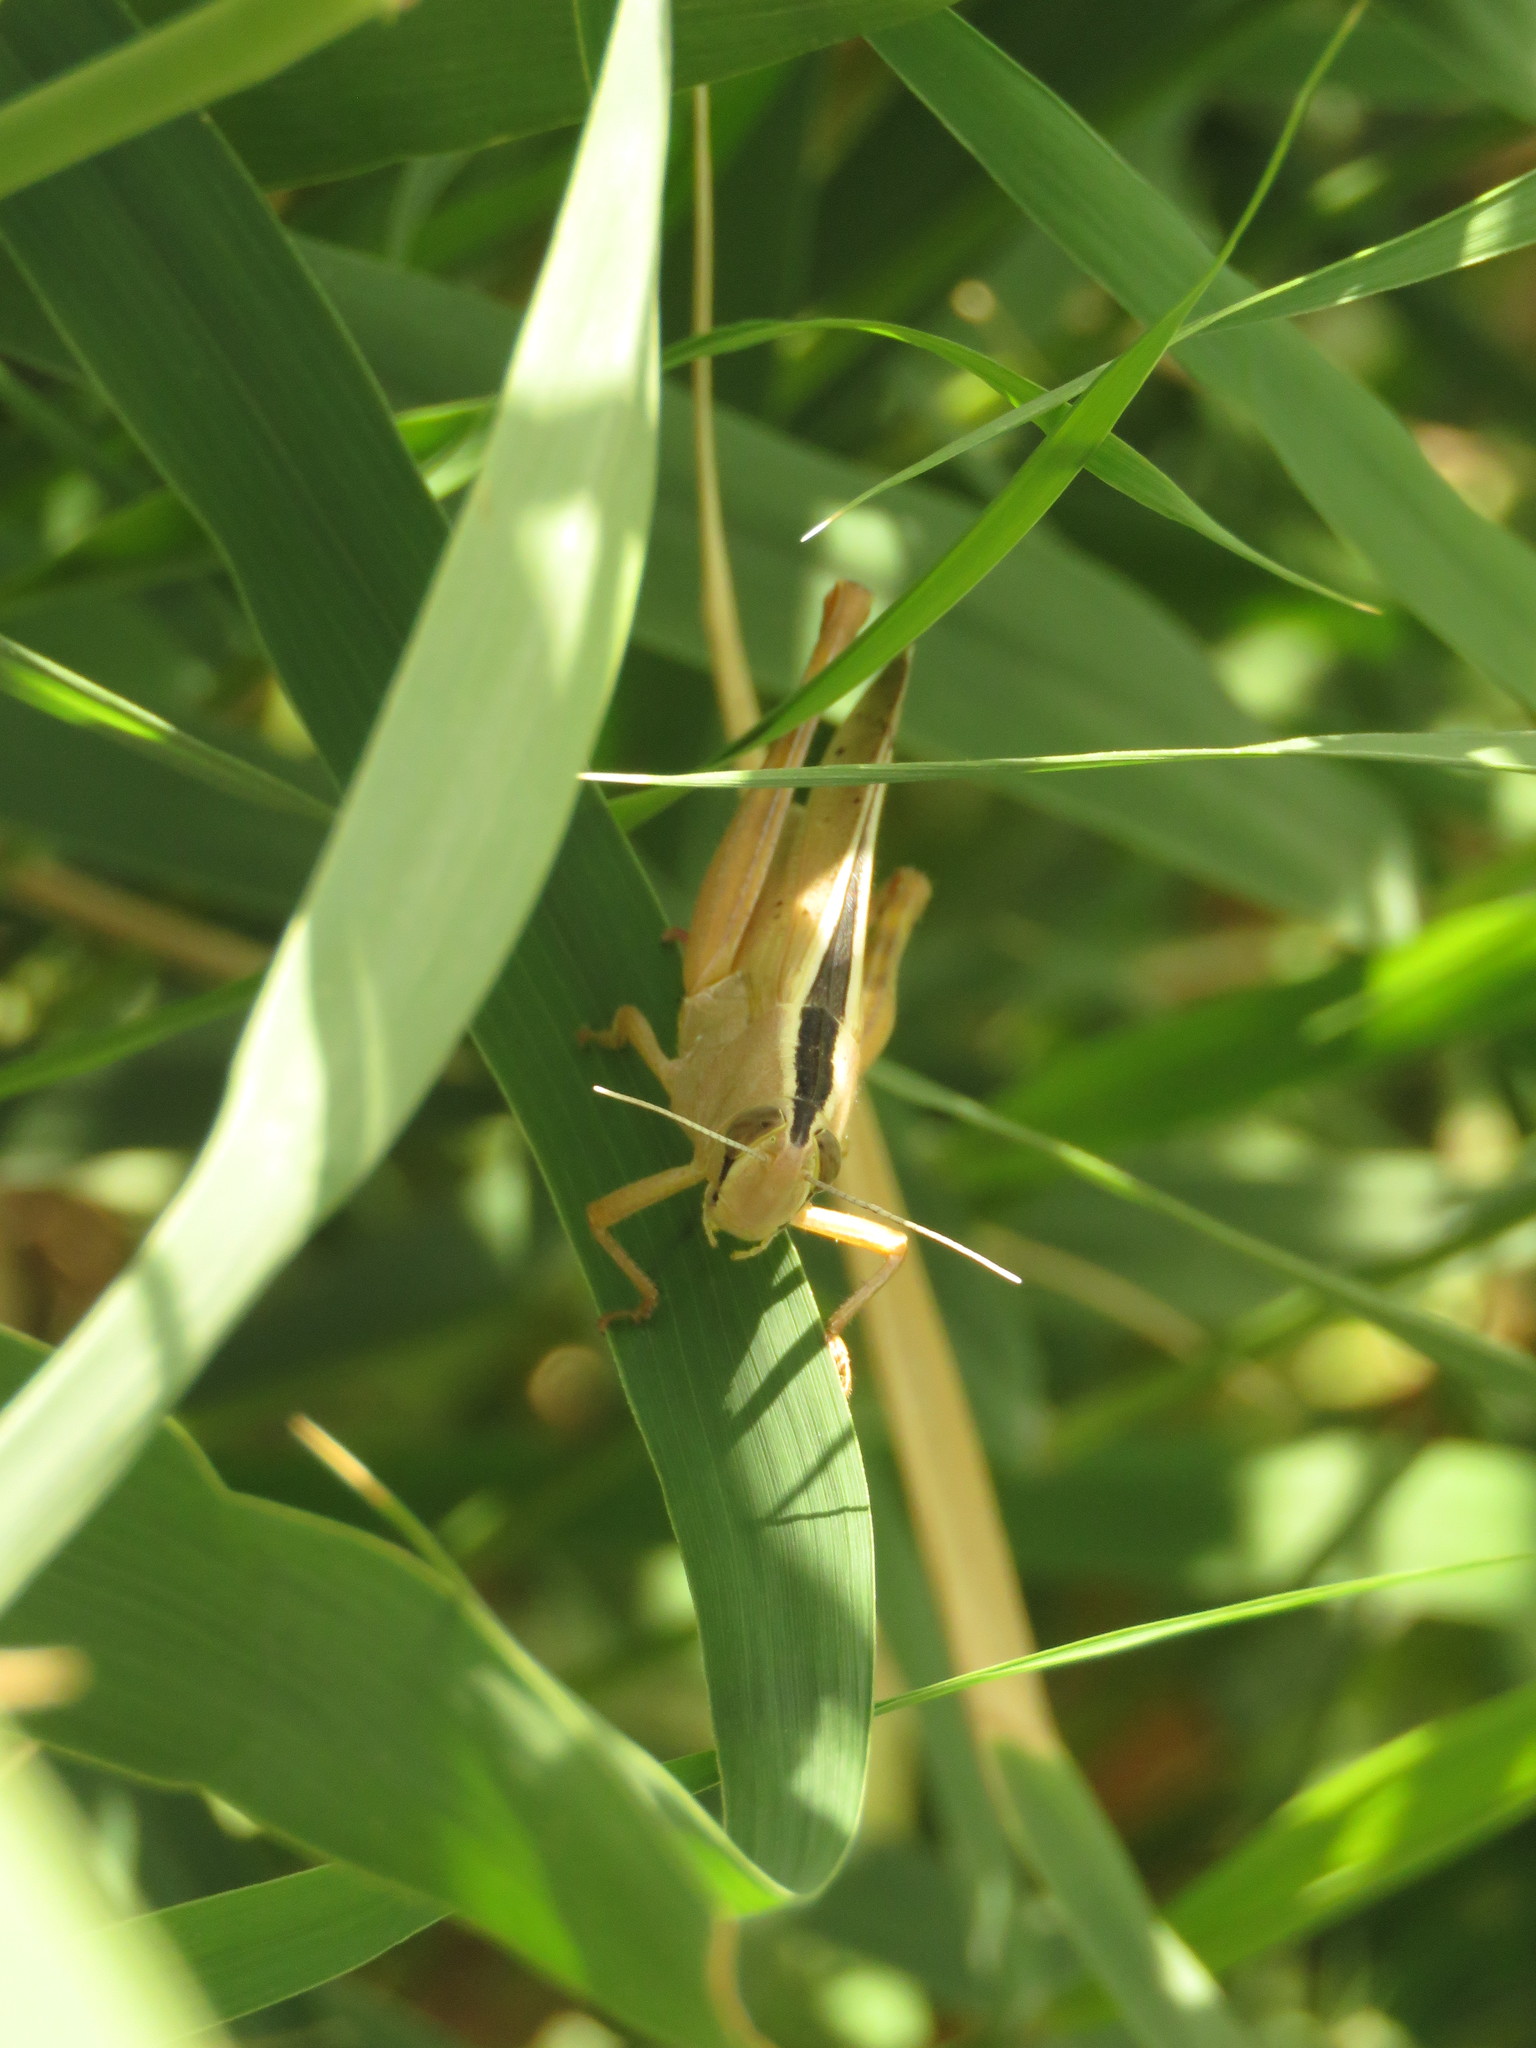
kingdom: Animalia
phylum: Arthropoda
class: Insecta
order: Orthoptera
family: Acrididae
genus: Heteracris
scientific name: Heteracris pterosticha
